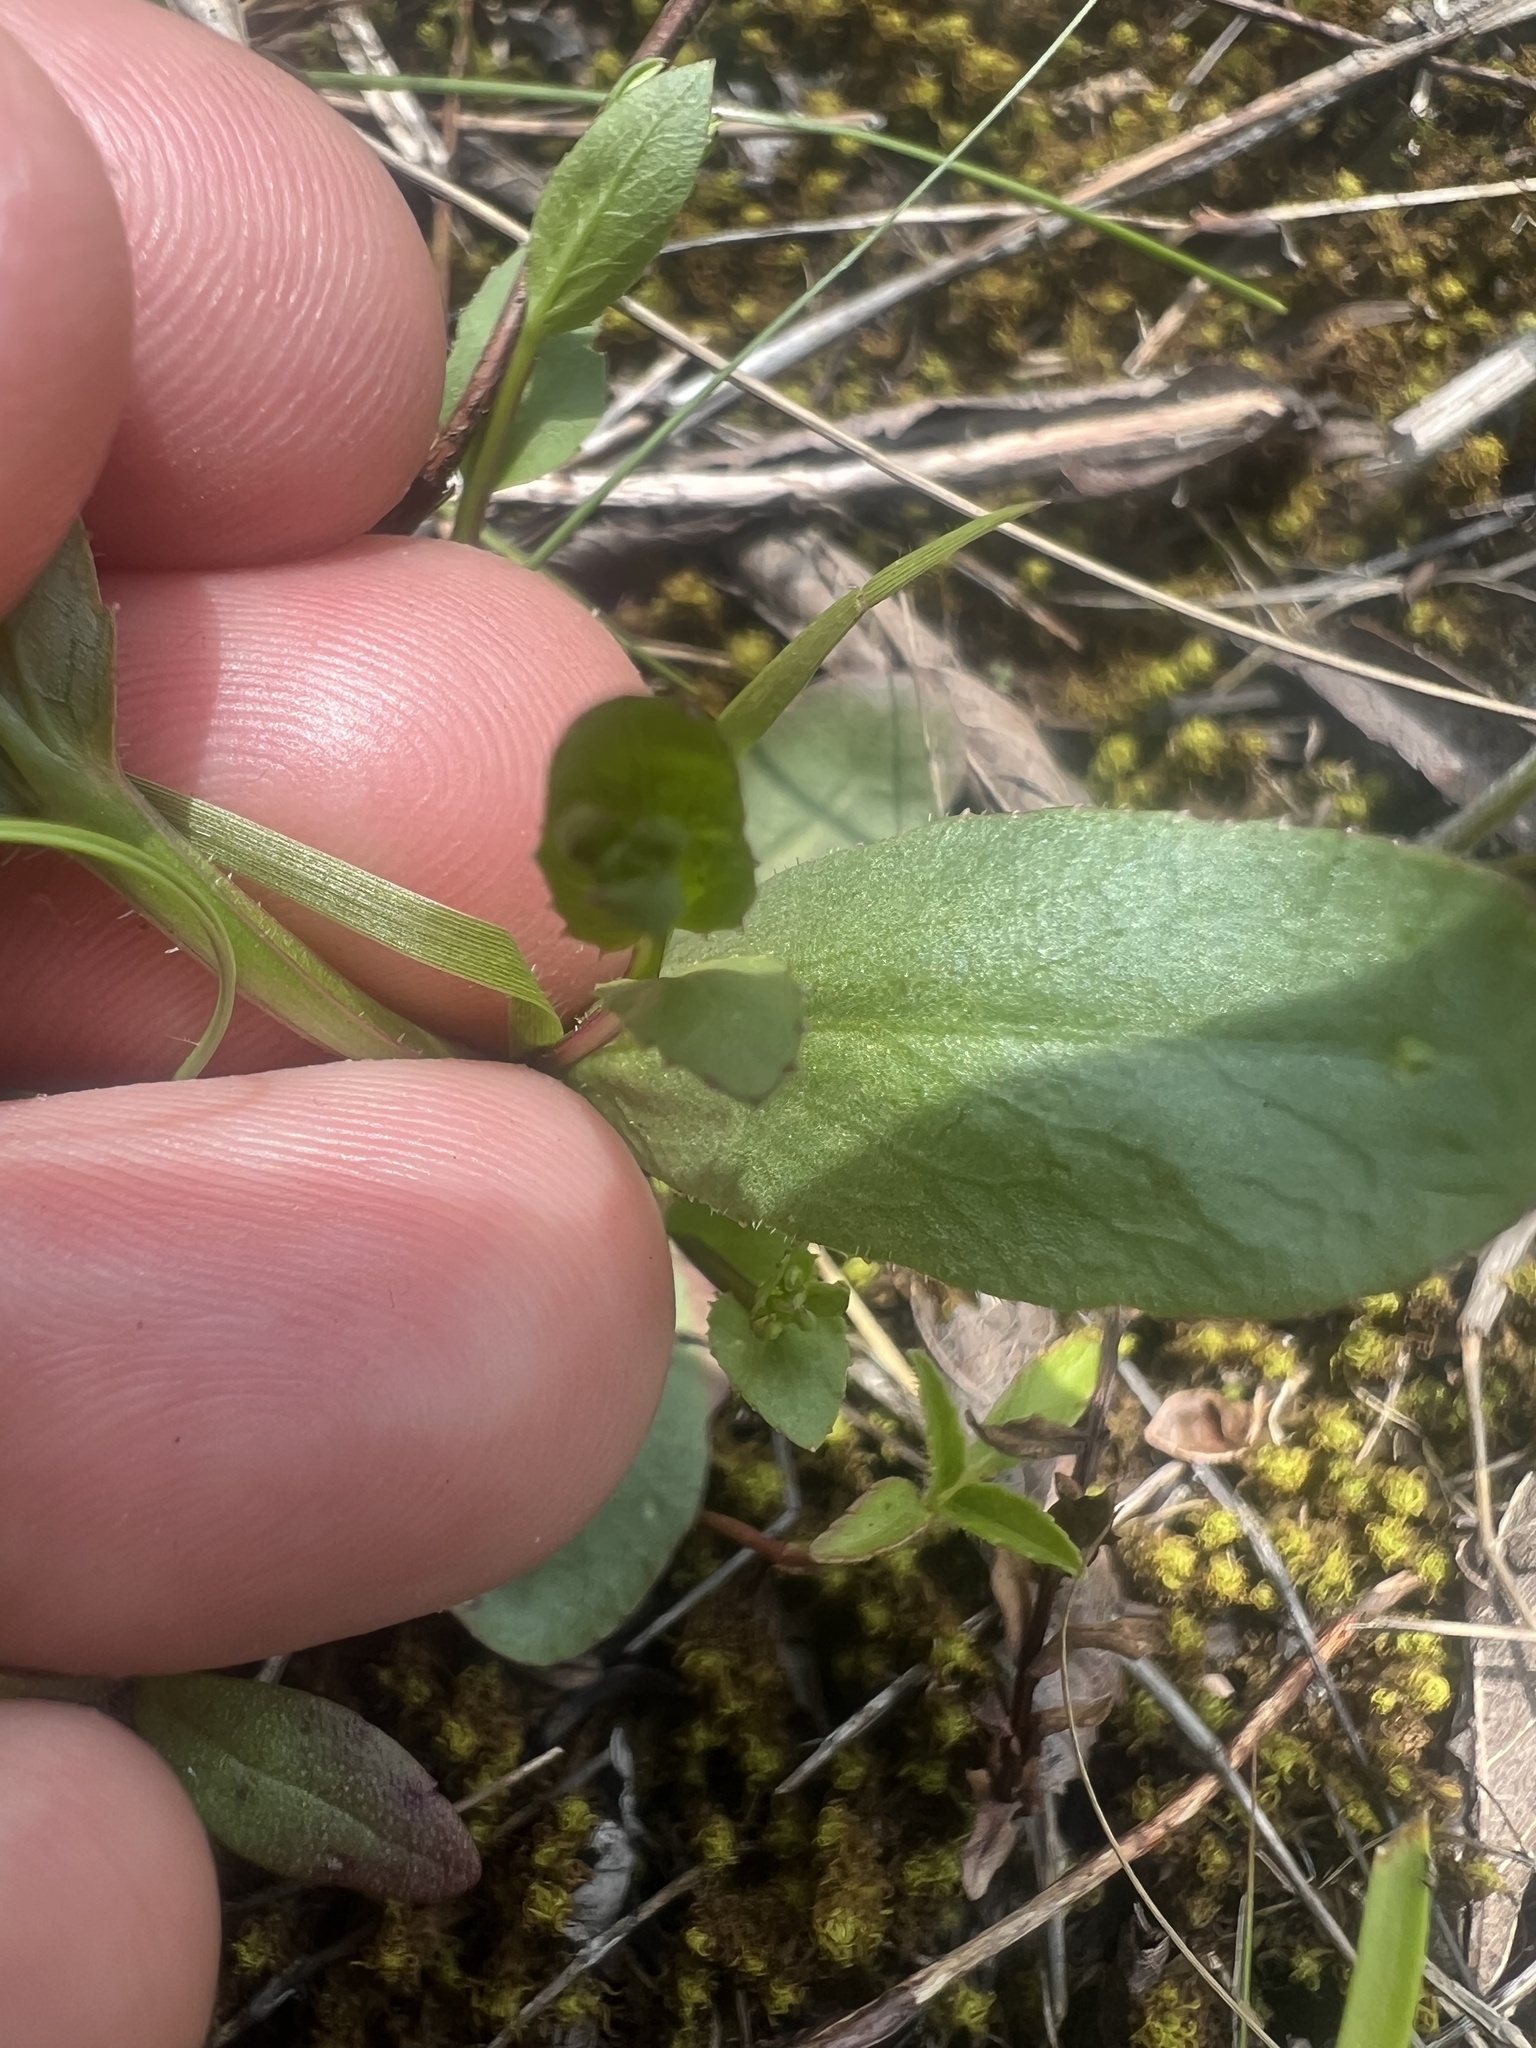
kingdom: Plantae
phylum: Tracheophyta
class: Magnoliopsida
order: Asterales
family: Campanulaceae
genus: Lobelia
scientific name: Lobelia gattingeri
